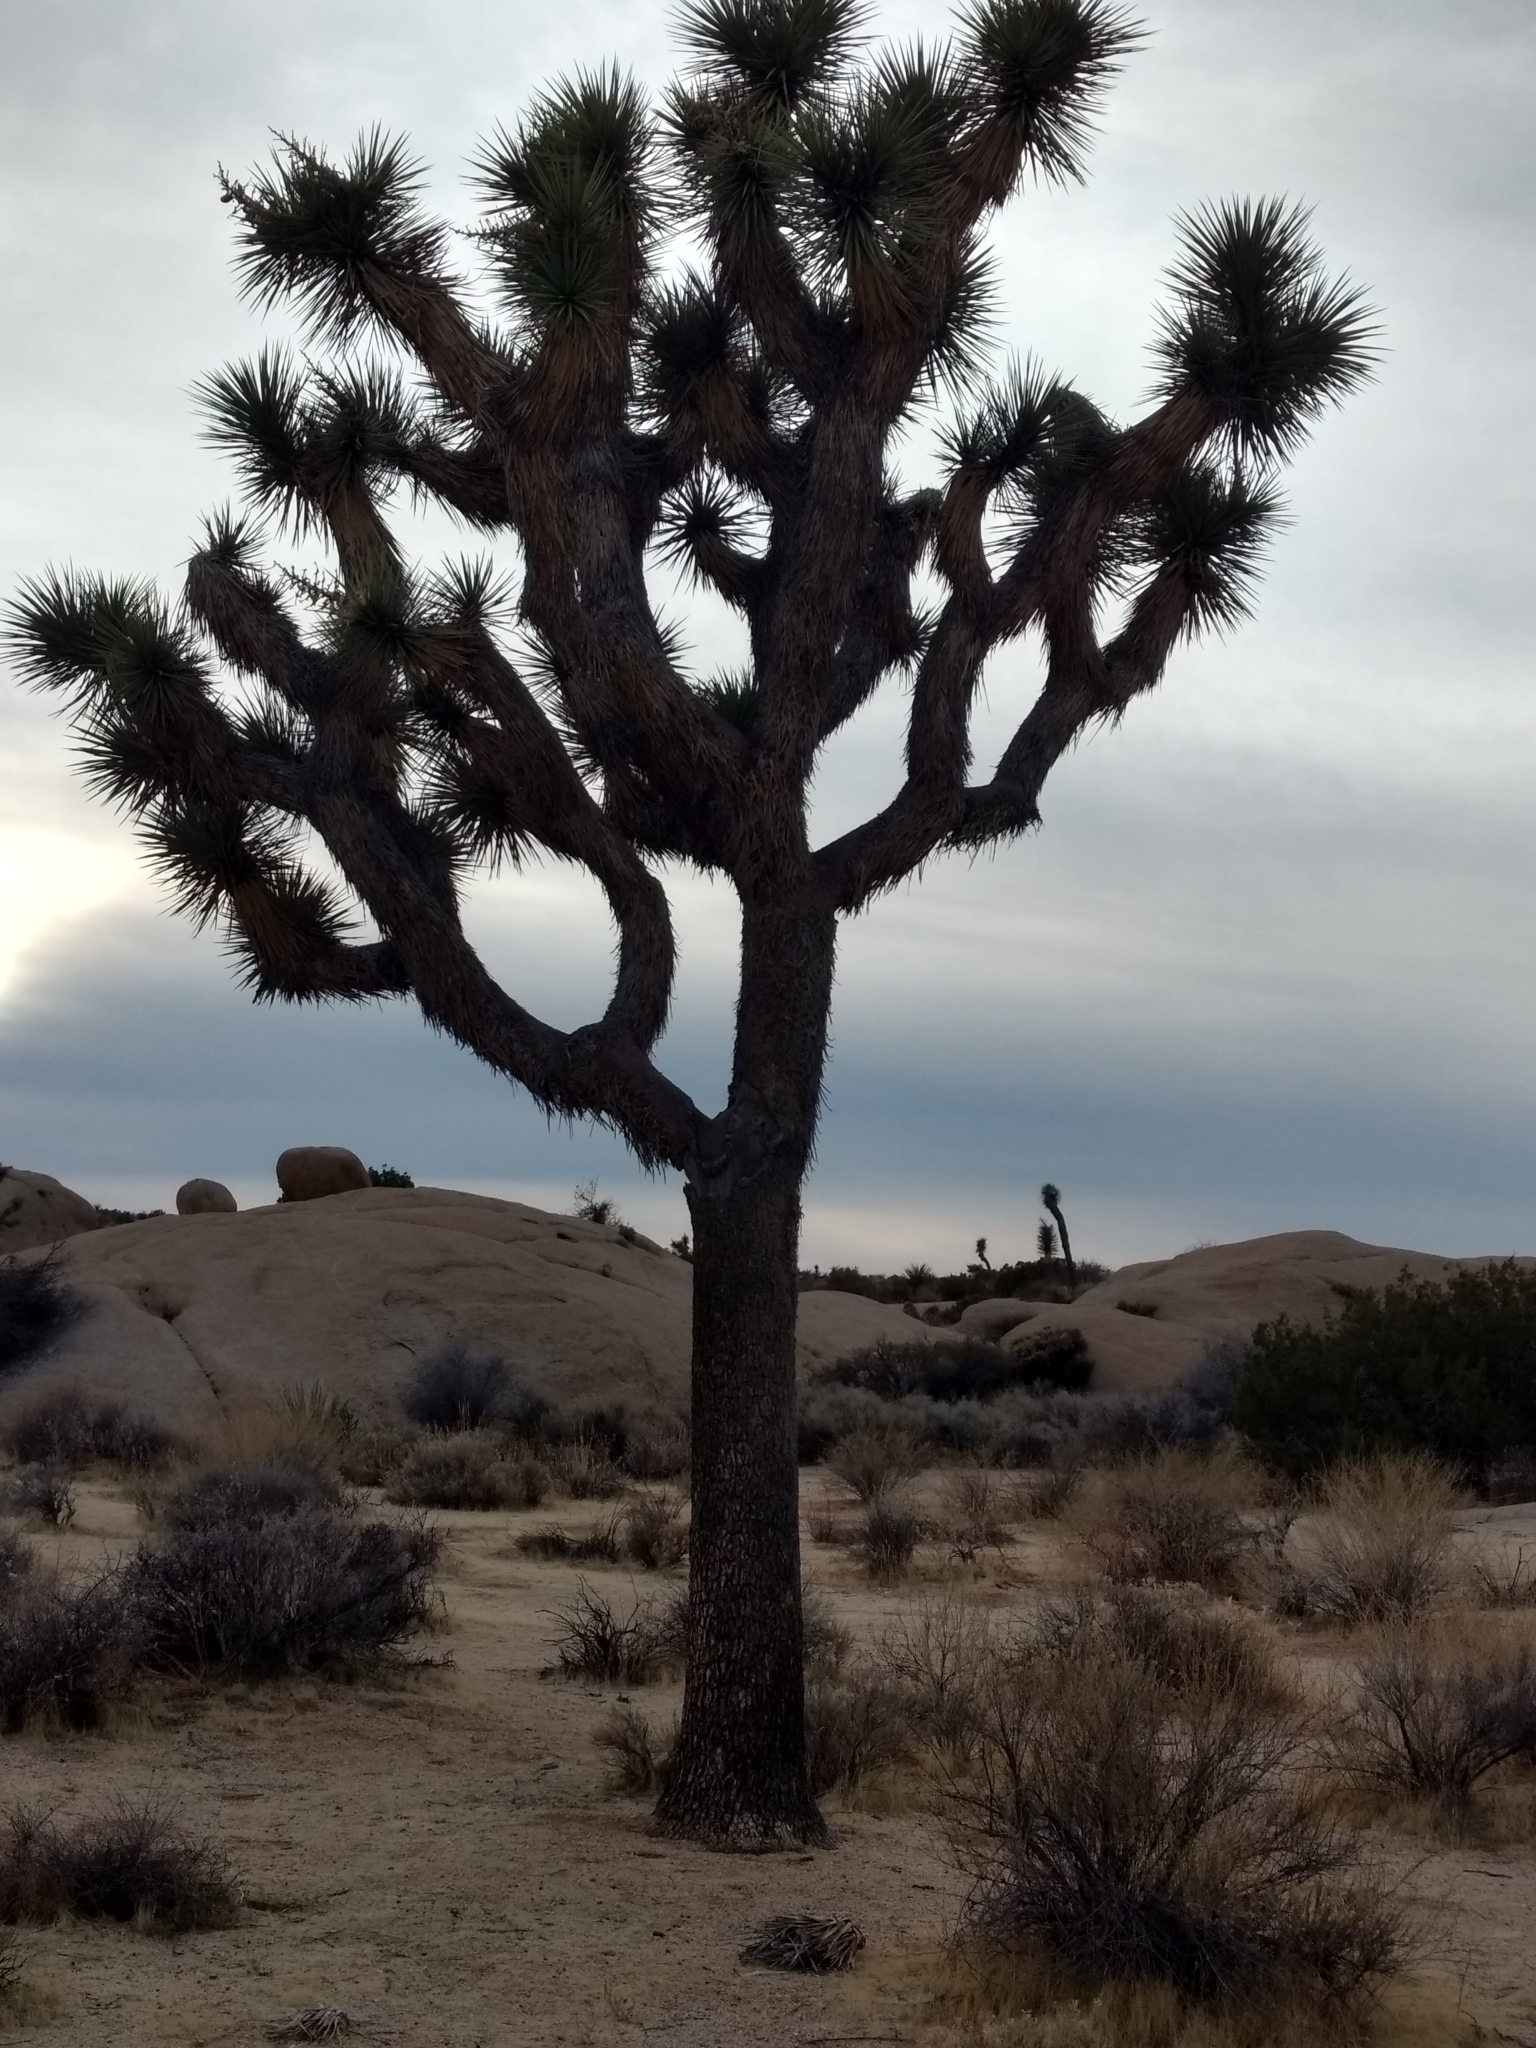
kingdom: Plantae
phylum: Tracheophyta
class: Liliopsida
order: Asparagales
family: Asparagaceae
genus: Yucca
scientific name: Yucca brevifolia
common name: Joshua tree
